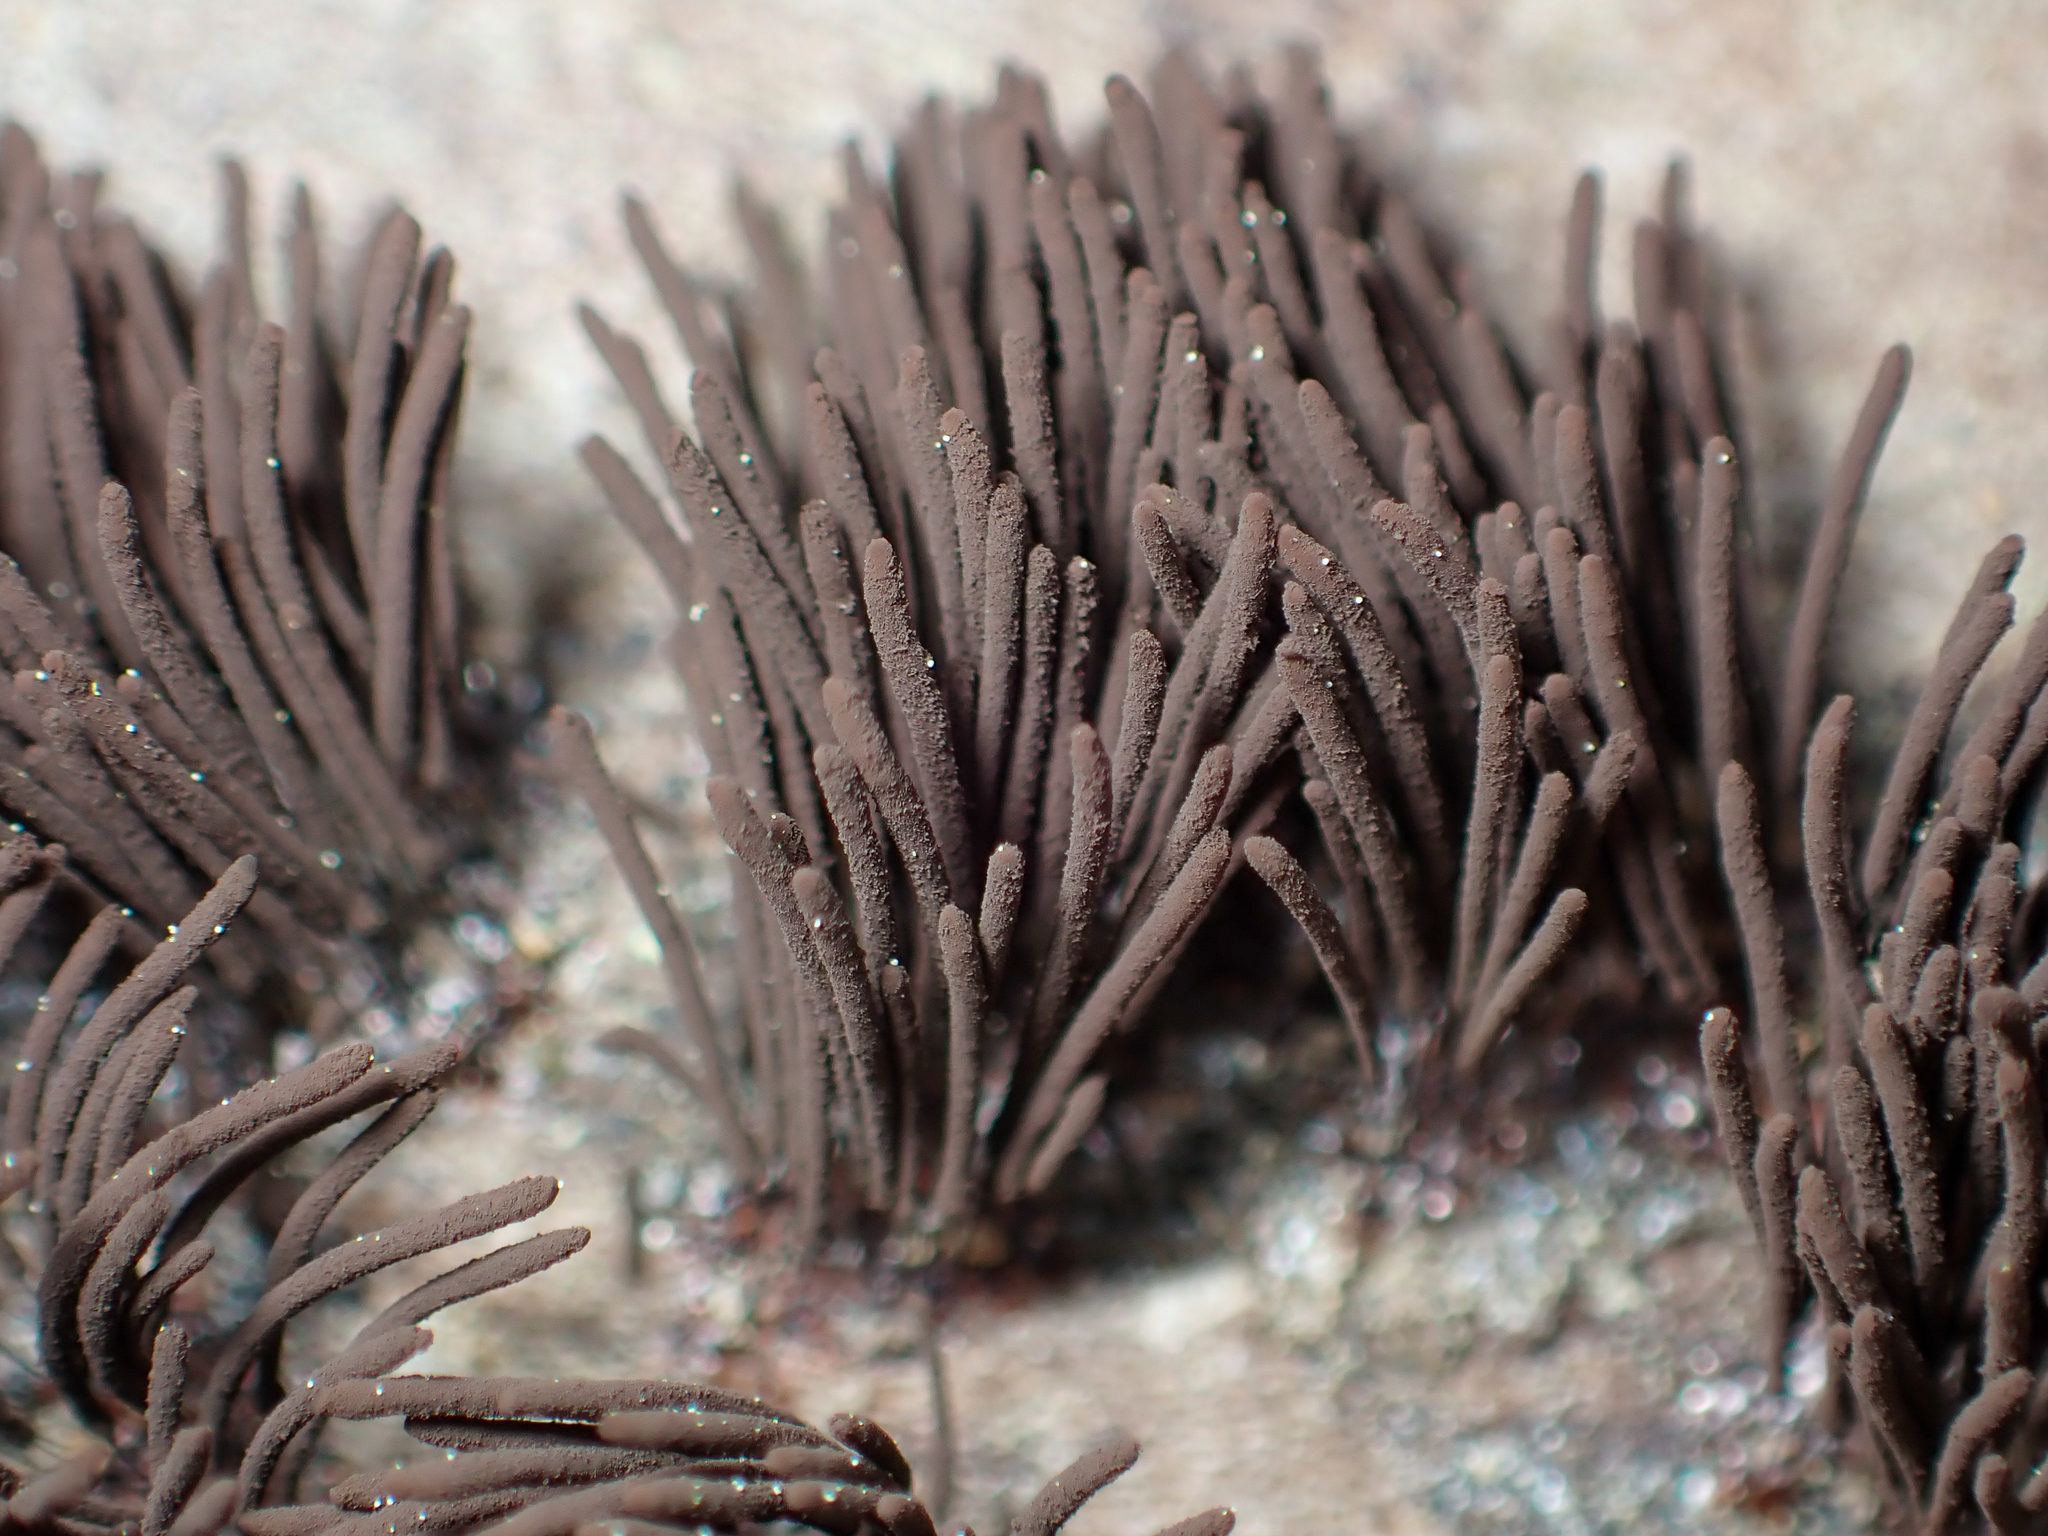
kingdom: Protozoa
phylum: Mycetozoa
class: Myxomycetes
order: Stemonitidales
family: Stemonitidaceae
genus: Stemonitis
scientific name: Stemonitis splendens
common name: Chocolate tube slime
